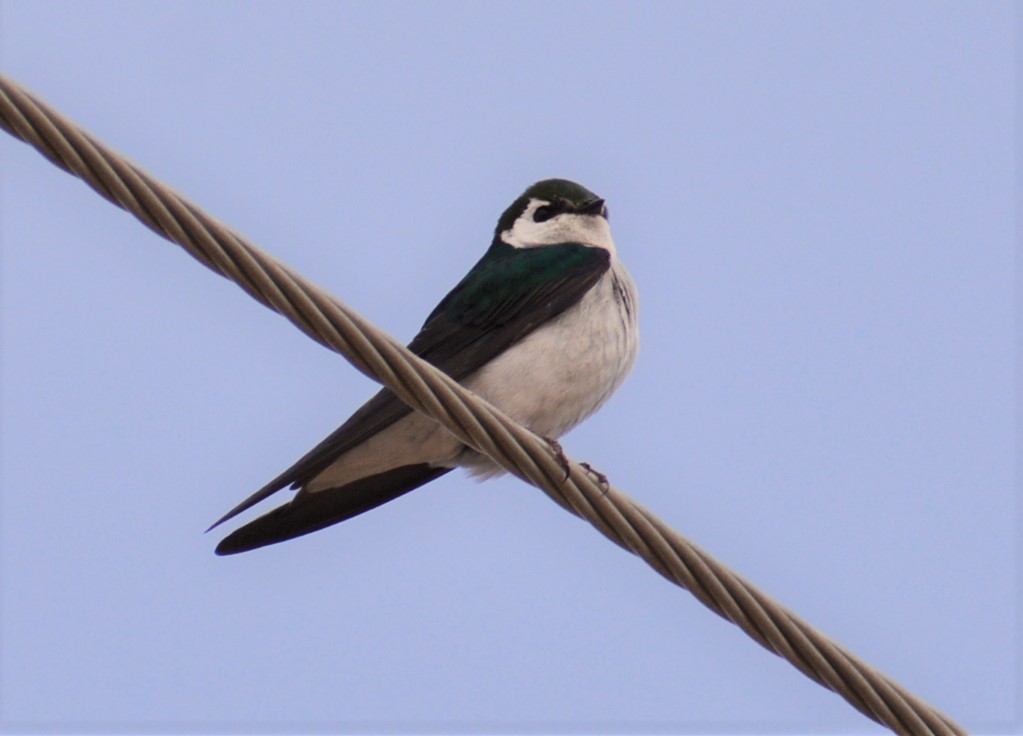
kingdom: Animalia
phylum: Chordata
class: Aves
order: Passeriformes
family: Hirundinidae
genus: Tachycineta
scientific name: Tachycineta thalassina
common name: Violet-green swallow
